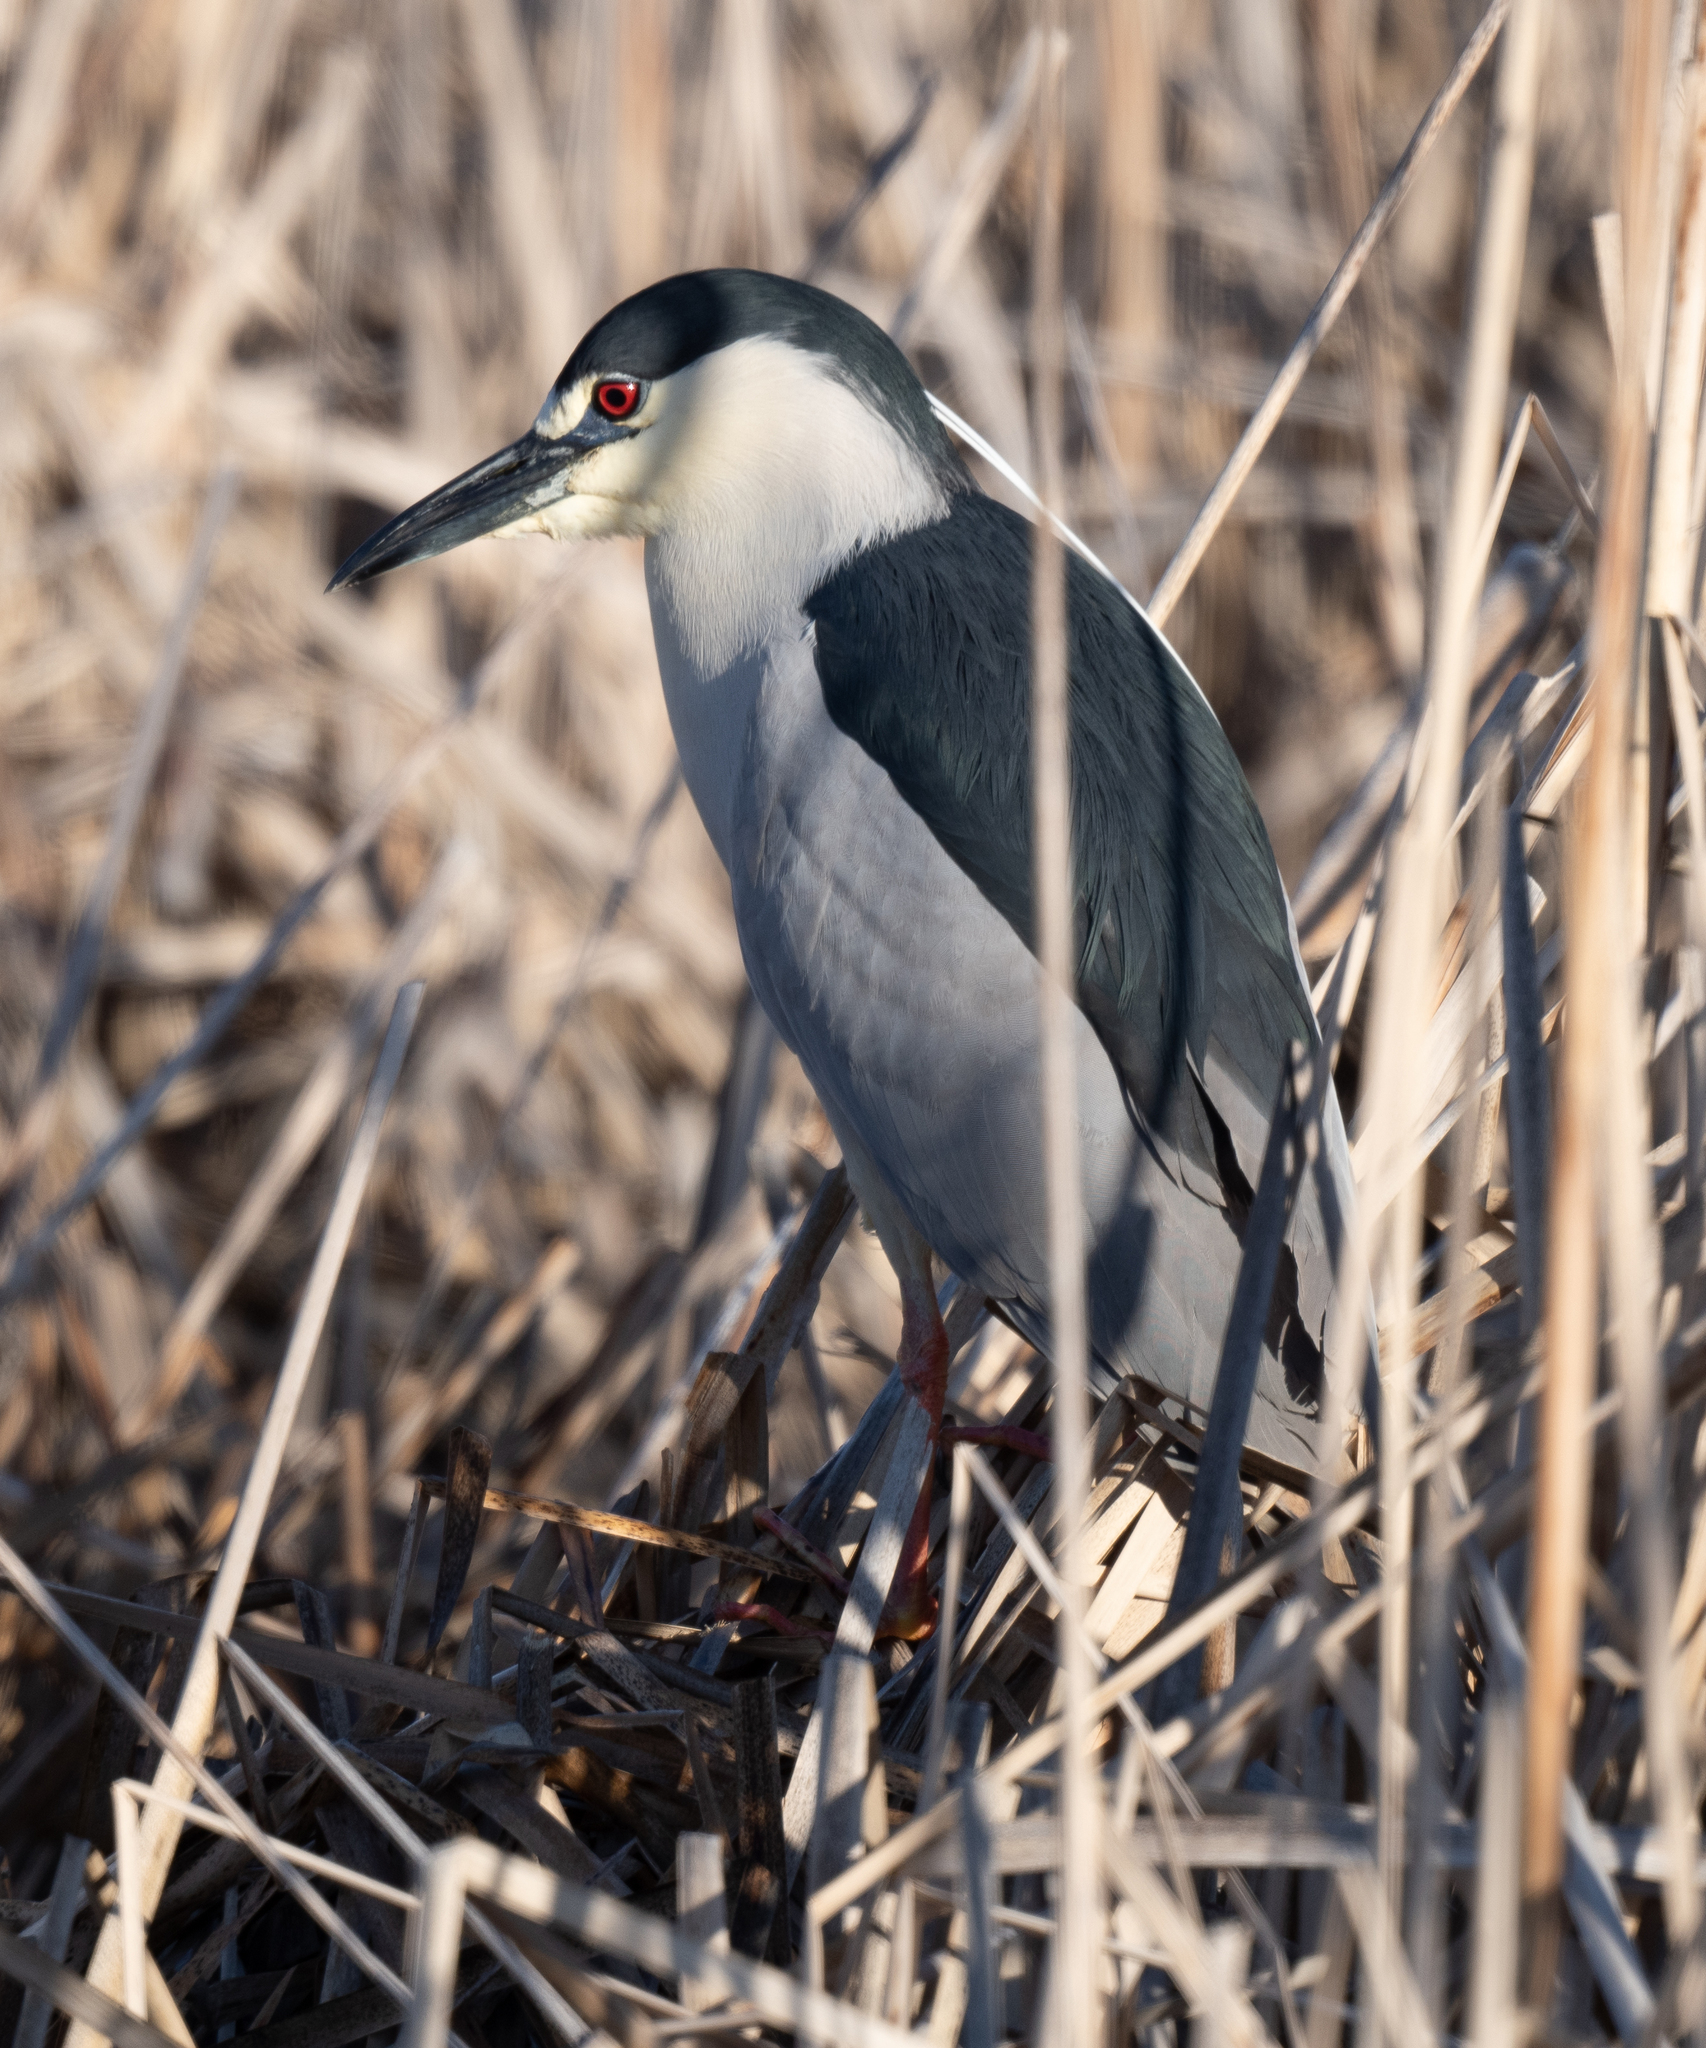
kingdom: Animalia
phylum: Chordata
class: Aves
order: Pelecaniformes
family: Ardeidae
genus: Nycticorax
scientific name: Nycticorax nycticorax
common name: Black-crowned night heron
